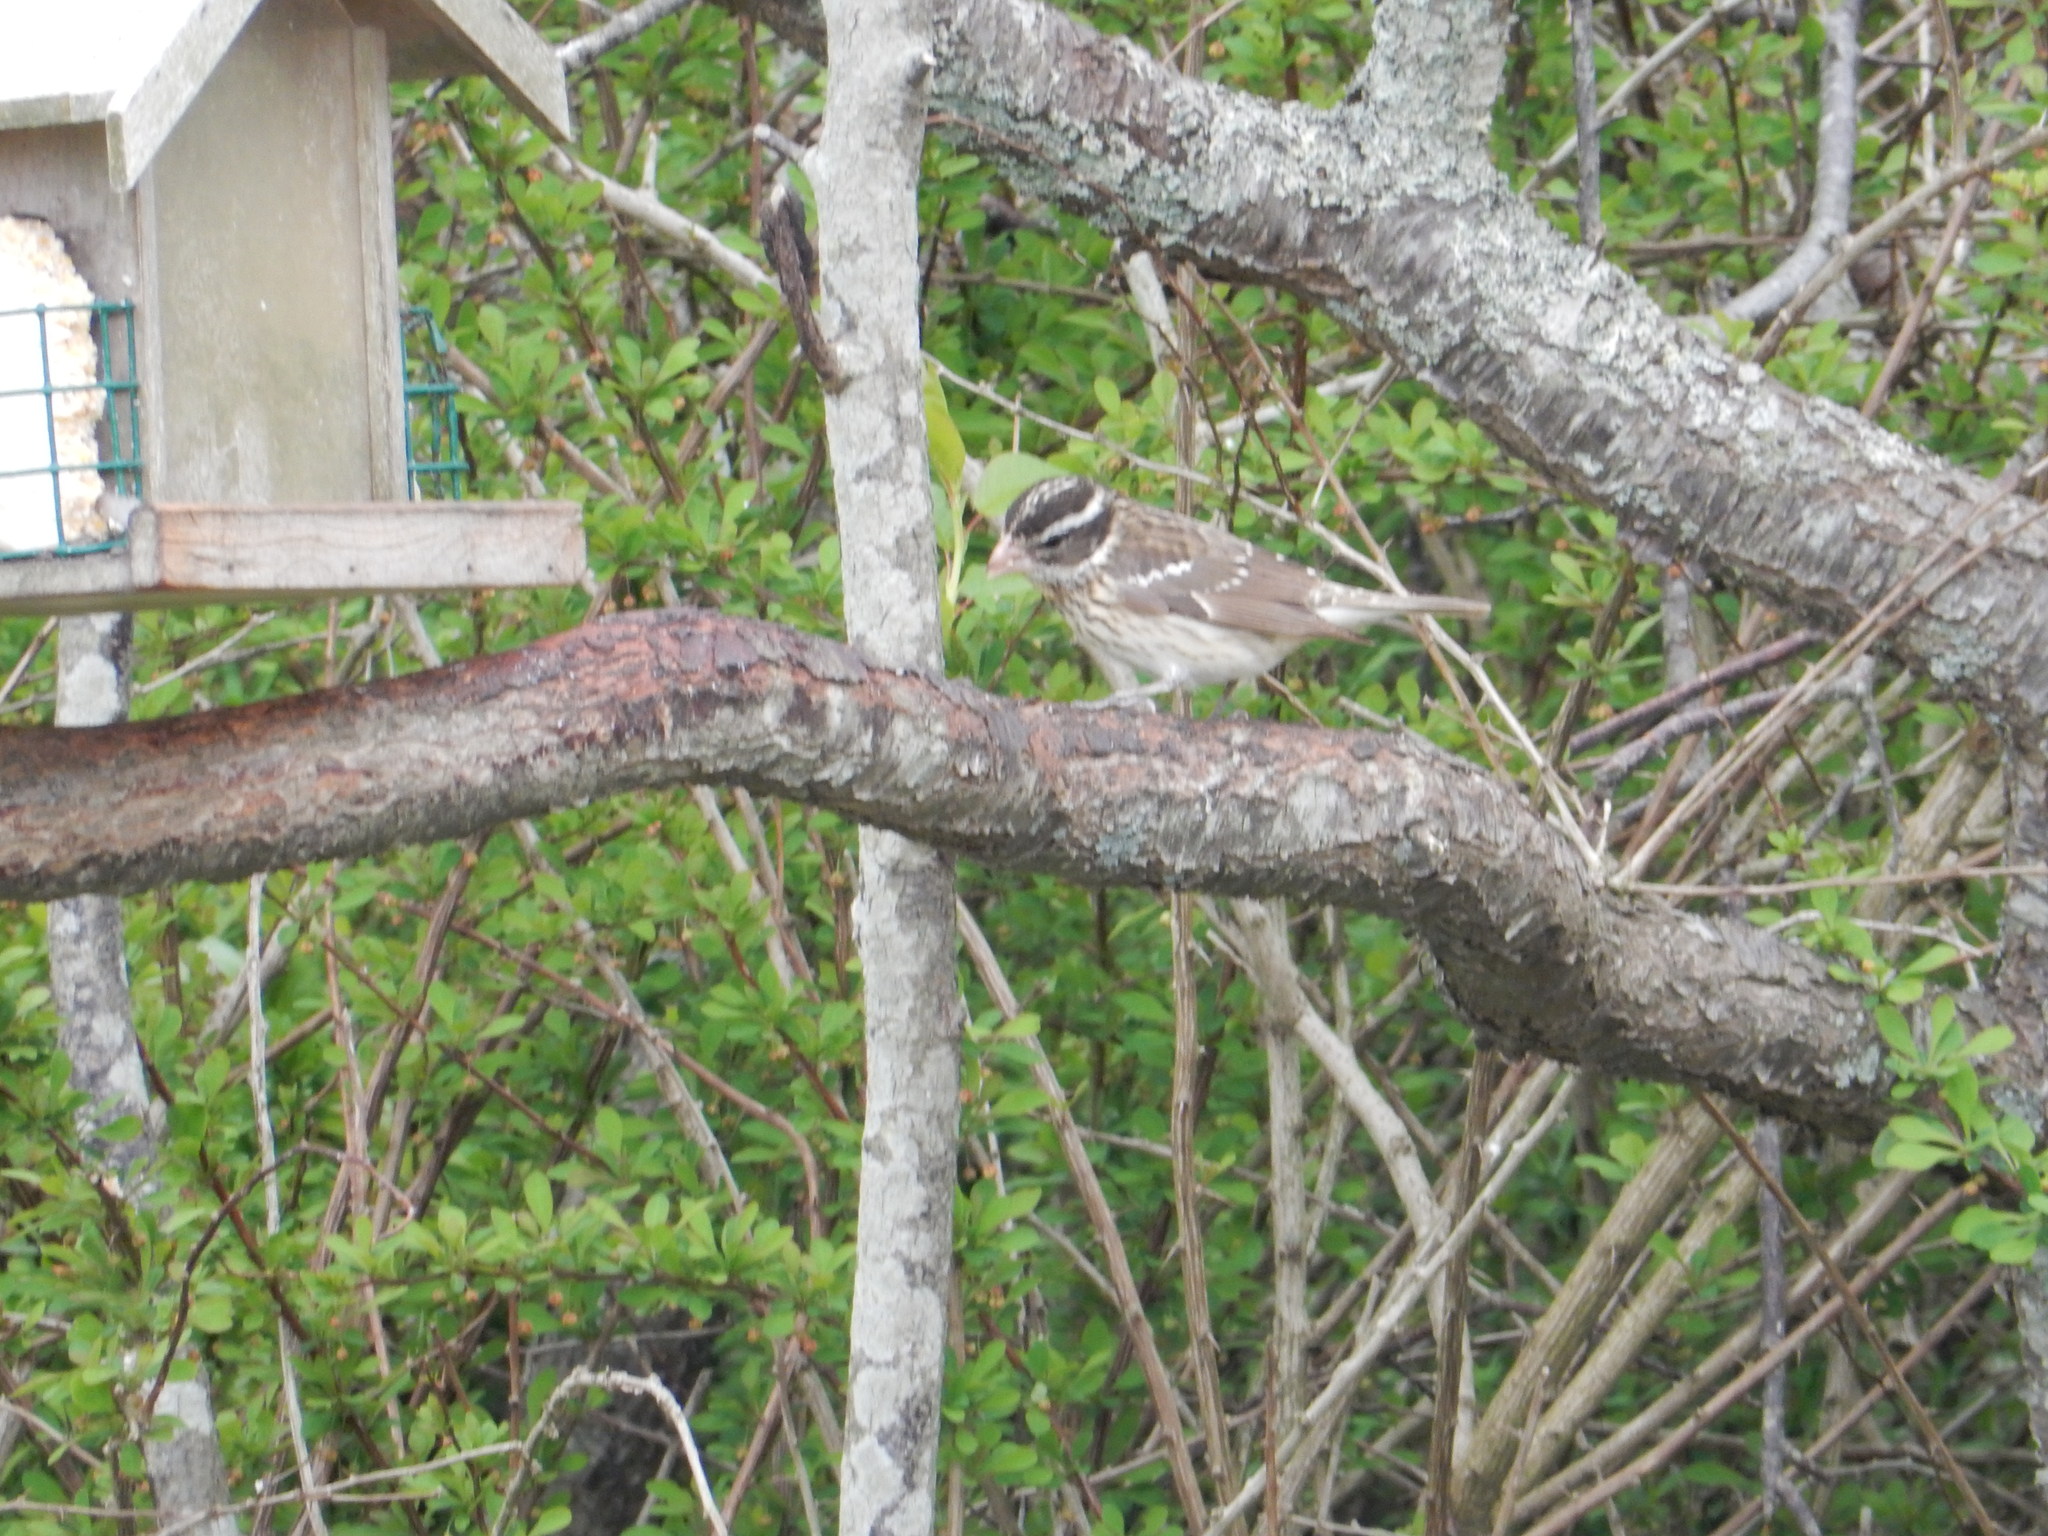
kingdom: Animalia
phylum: Chordata
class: Aves
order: Passeriformes
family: Cardinalidae
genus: Pheucticus
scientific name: Pheucticus ludovicianus
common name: Rose-breasted grosbeak
